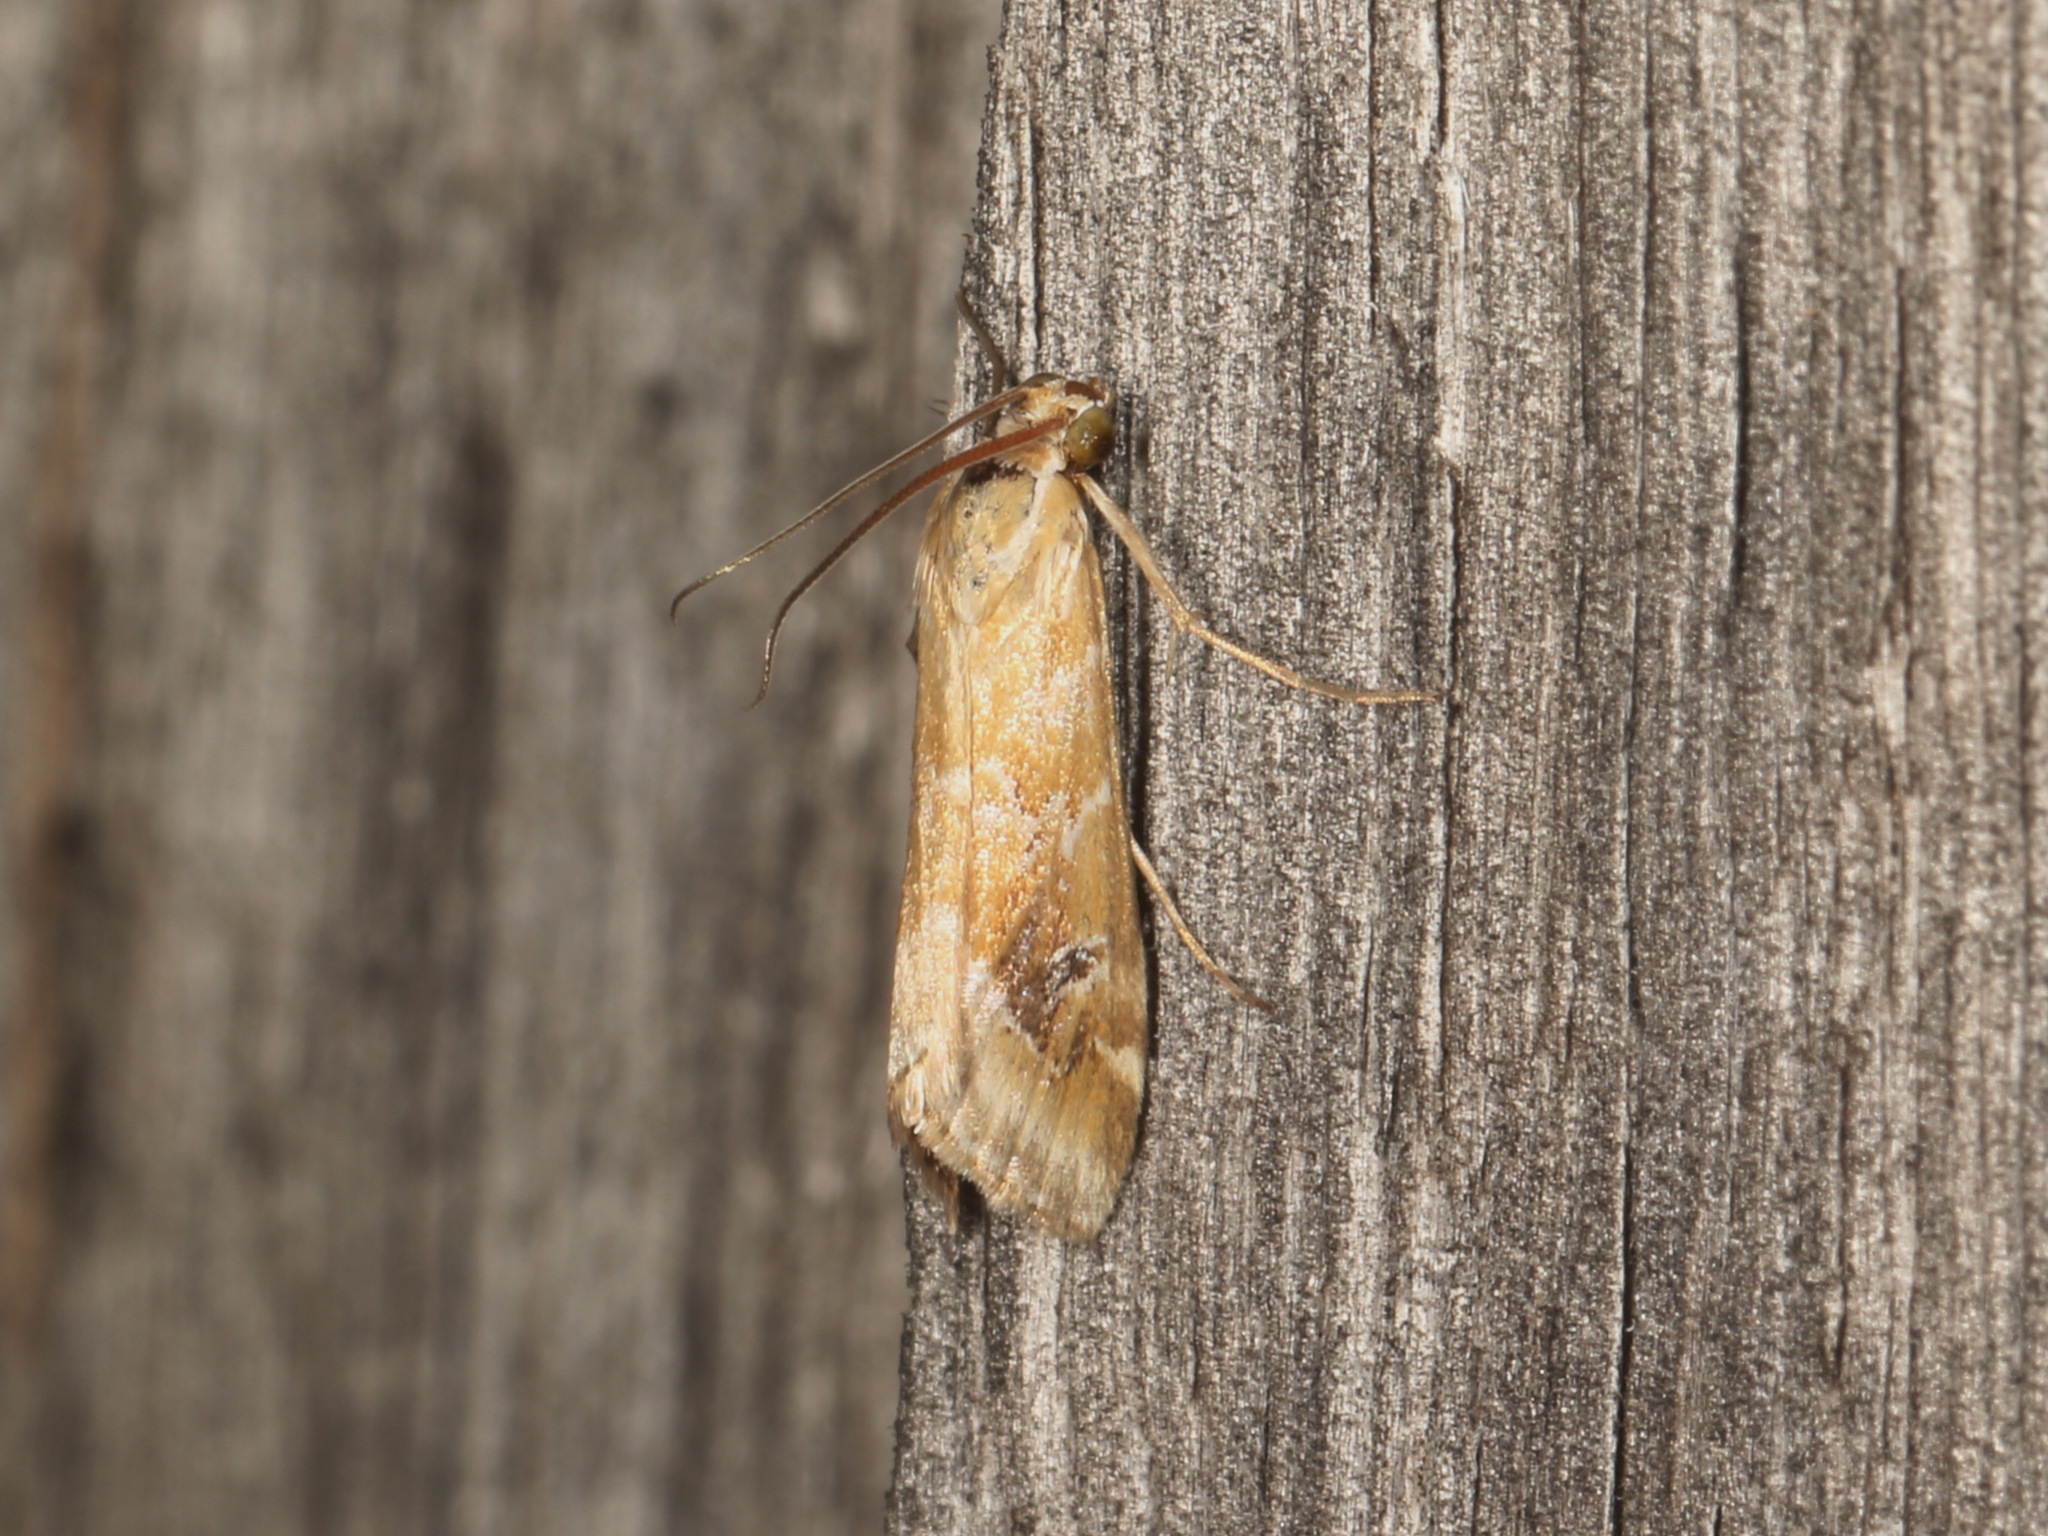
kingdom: Animalia
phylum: Arthropoda
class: Insecta
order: Lepidoptera
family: Crambidae
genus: Hellula
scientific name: Hellula hydralis
